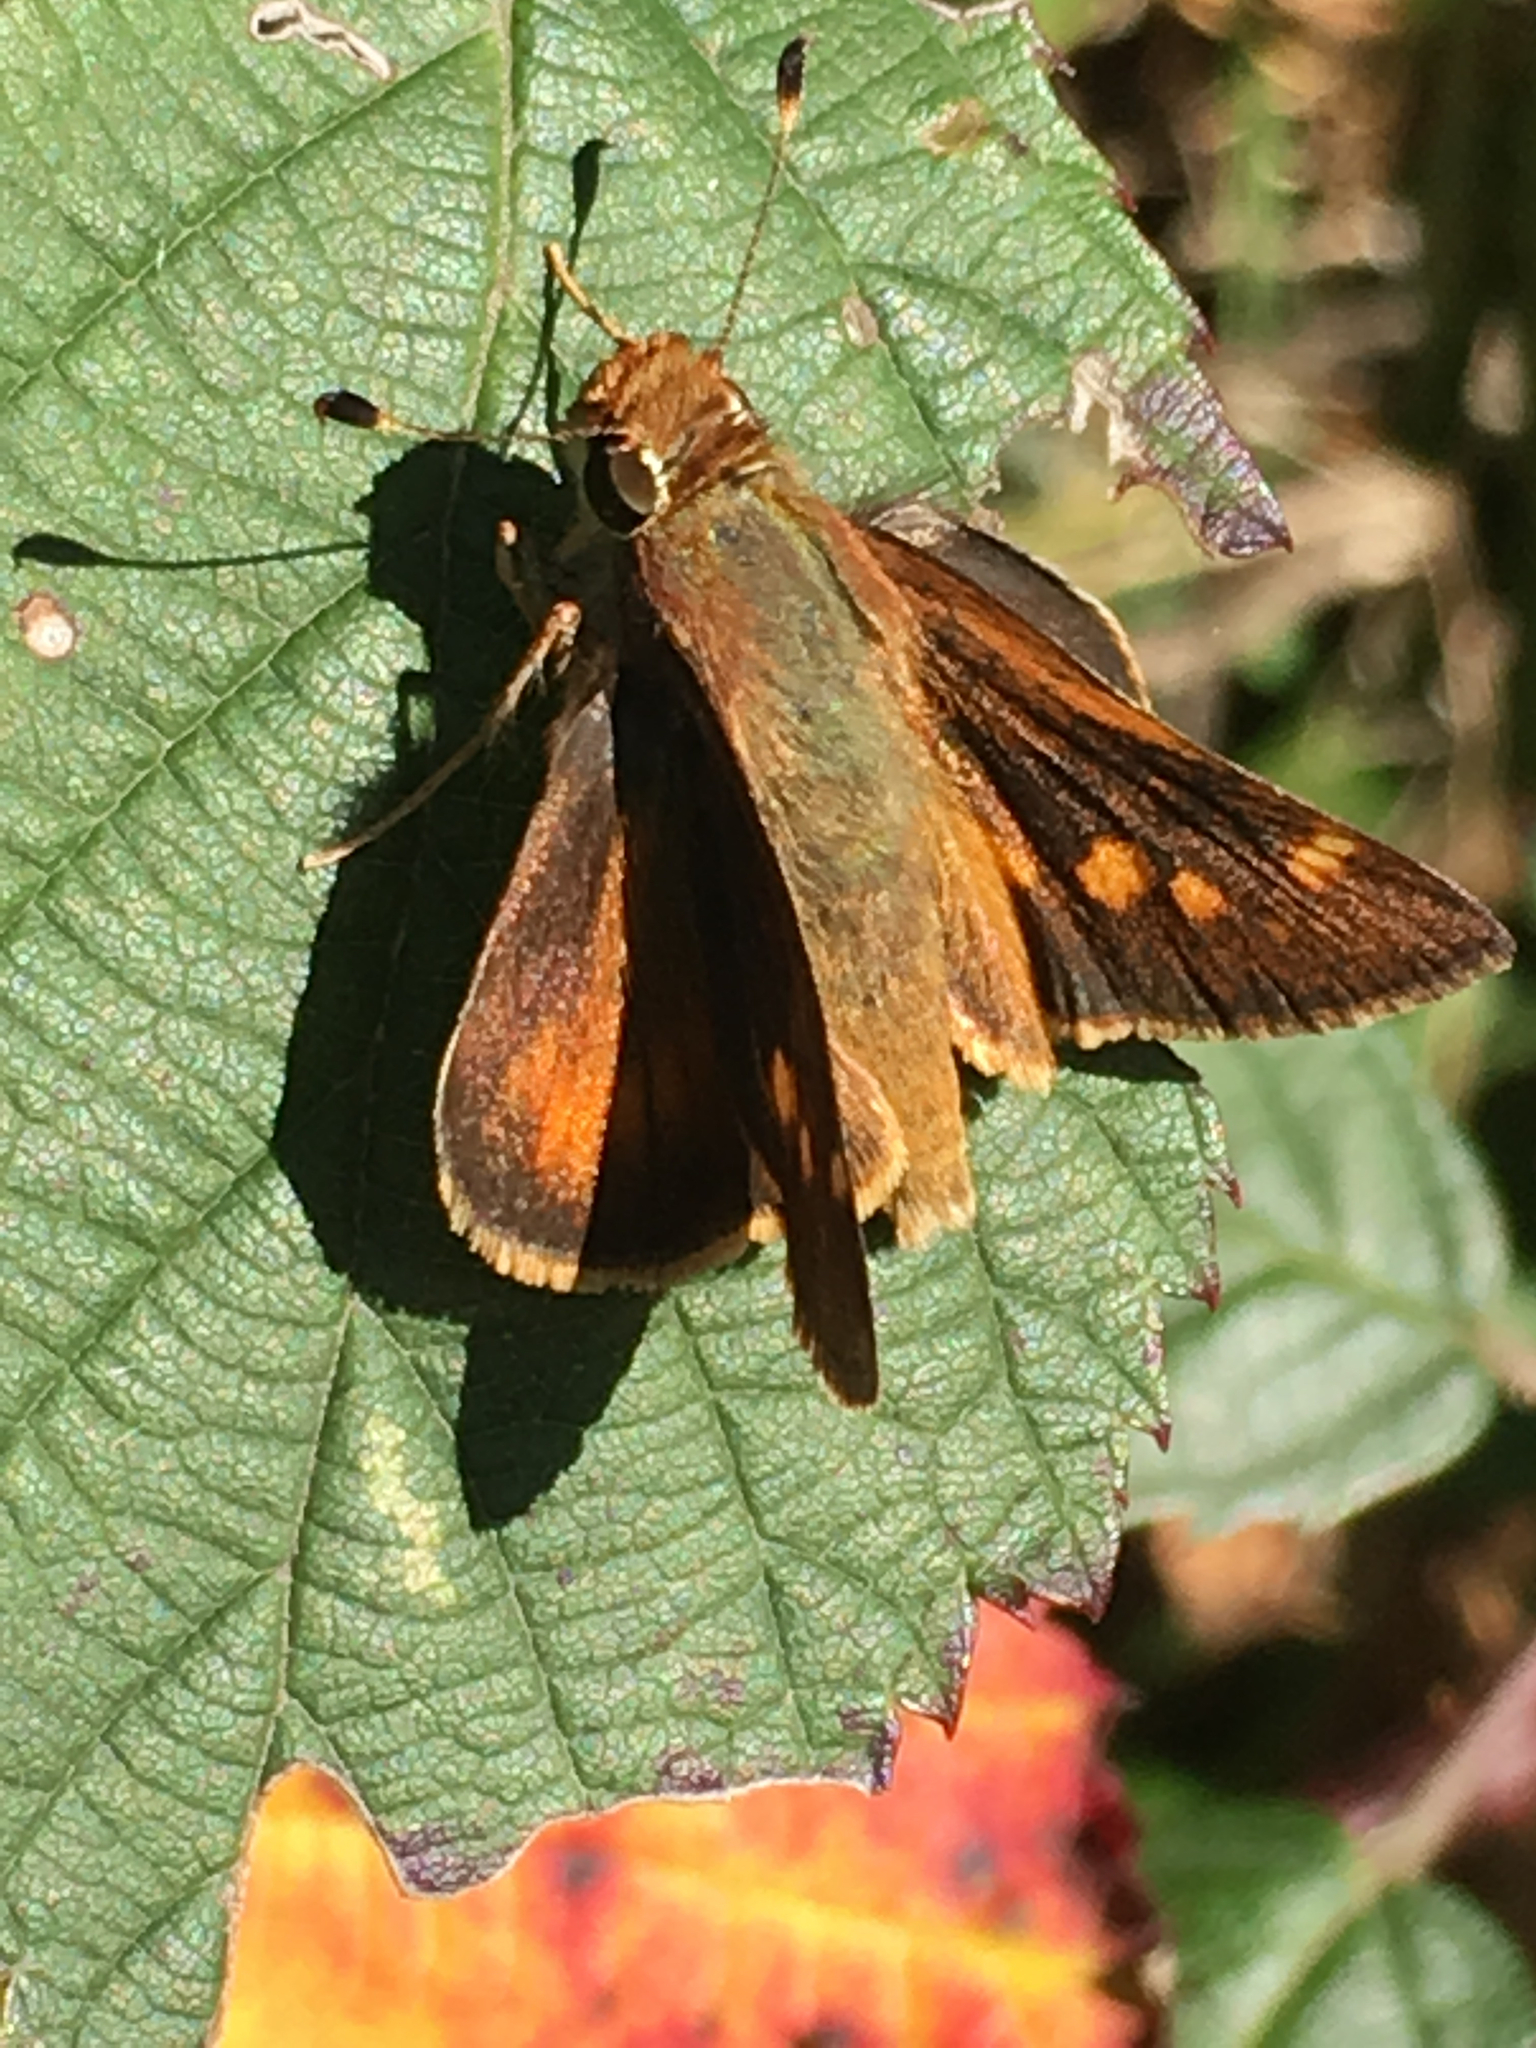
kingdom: Animalia
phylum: Arthropoda
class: Insecta
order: Lepidoptera
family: Hesperiidae
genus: Lon
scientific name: Lon melane
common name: Umber skipper
